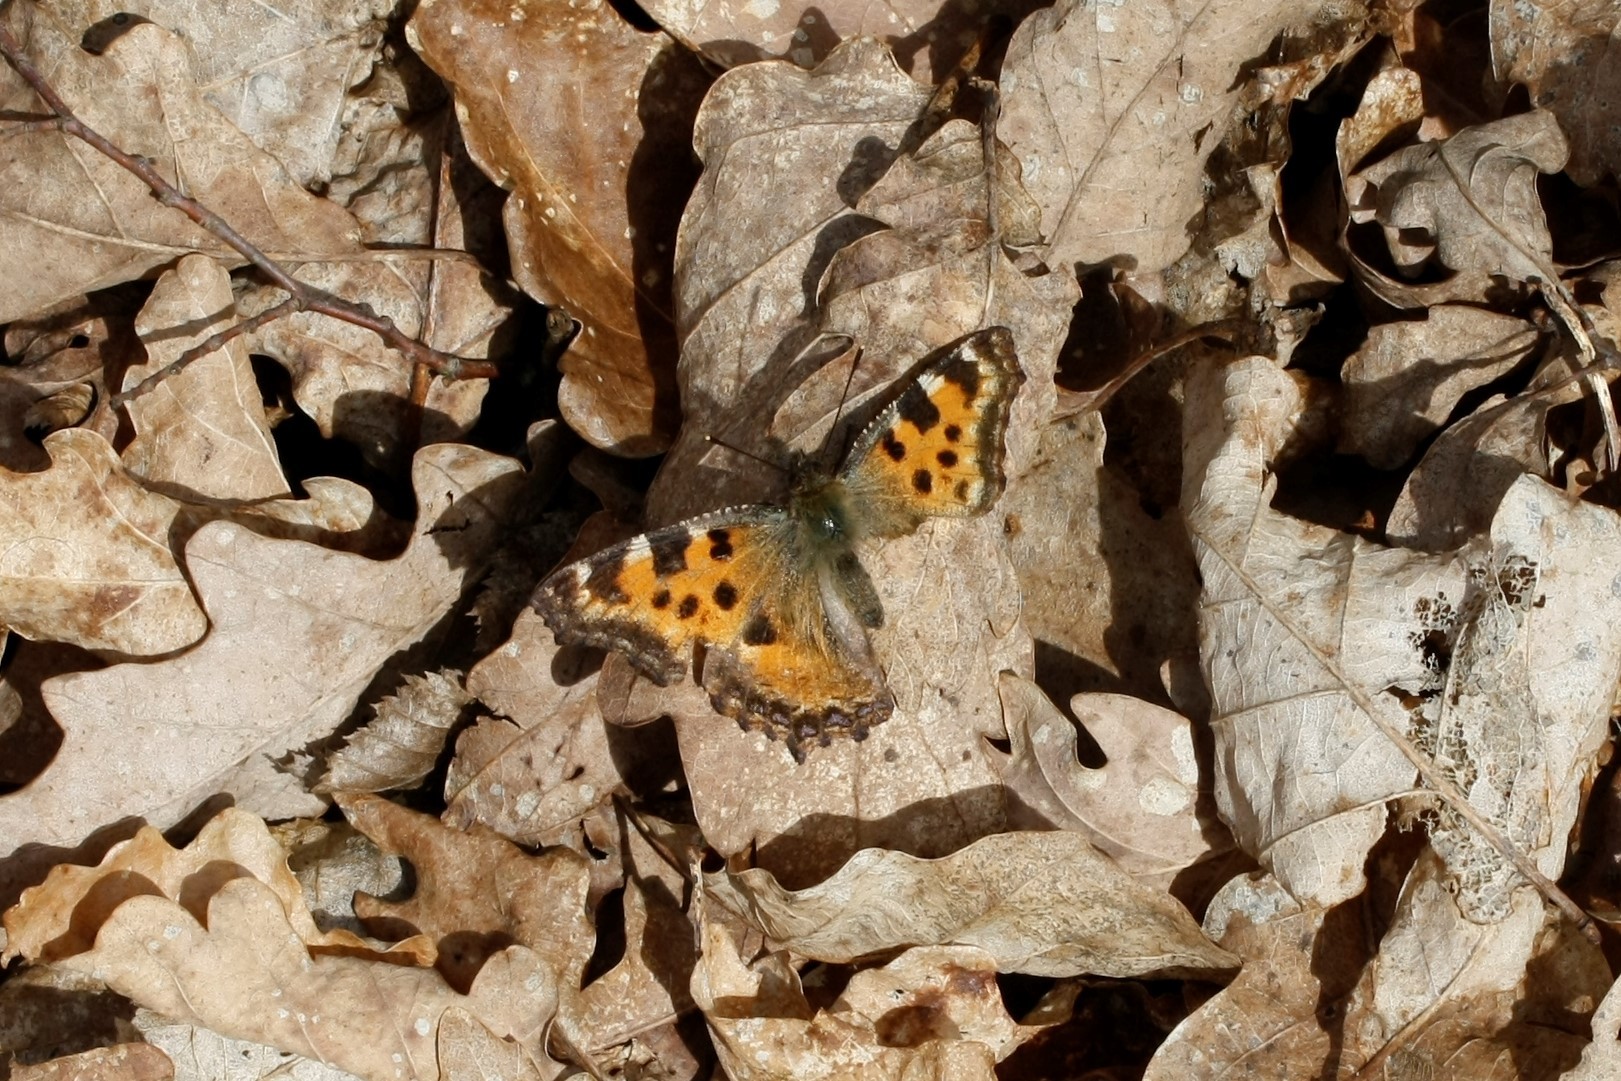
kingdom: Animalia
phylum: Arthropoda
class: Insecta
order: Lepidoptera
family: Nymphalidae
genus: Nymphalis
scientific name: Nymphalis polychloros
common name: Large tortoiseshell
